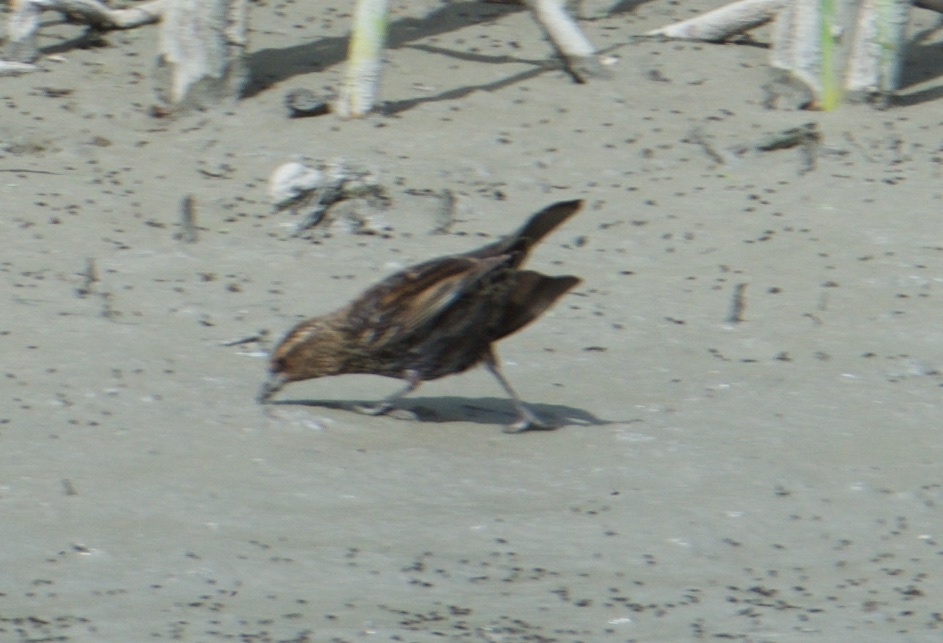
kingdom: Animalia
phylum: Chordata
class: Aves
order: Passeriformes
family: Icteridae
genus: Agelaius
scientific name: Agelaius phoeniceus
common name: Red-winged blackbird
